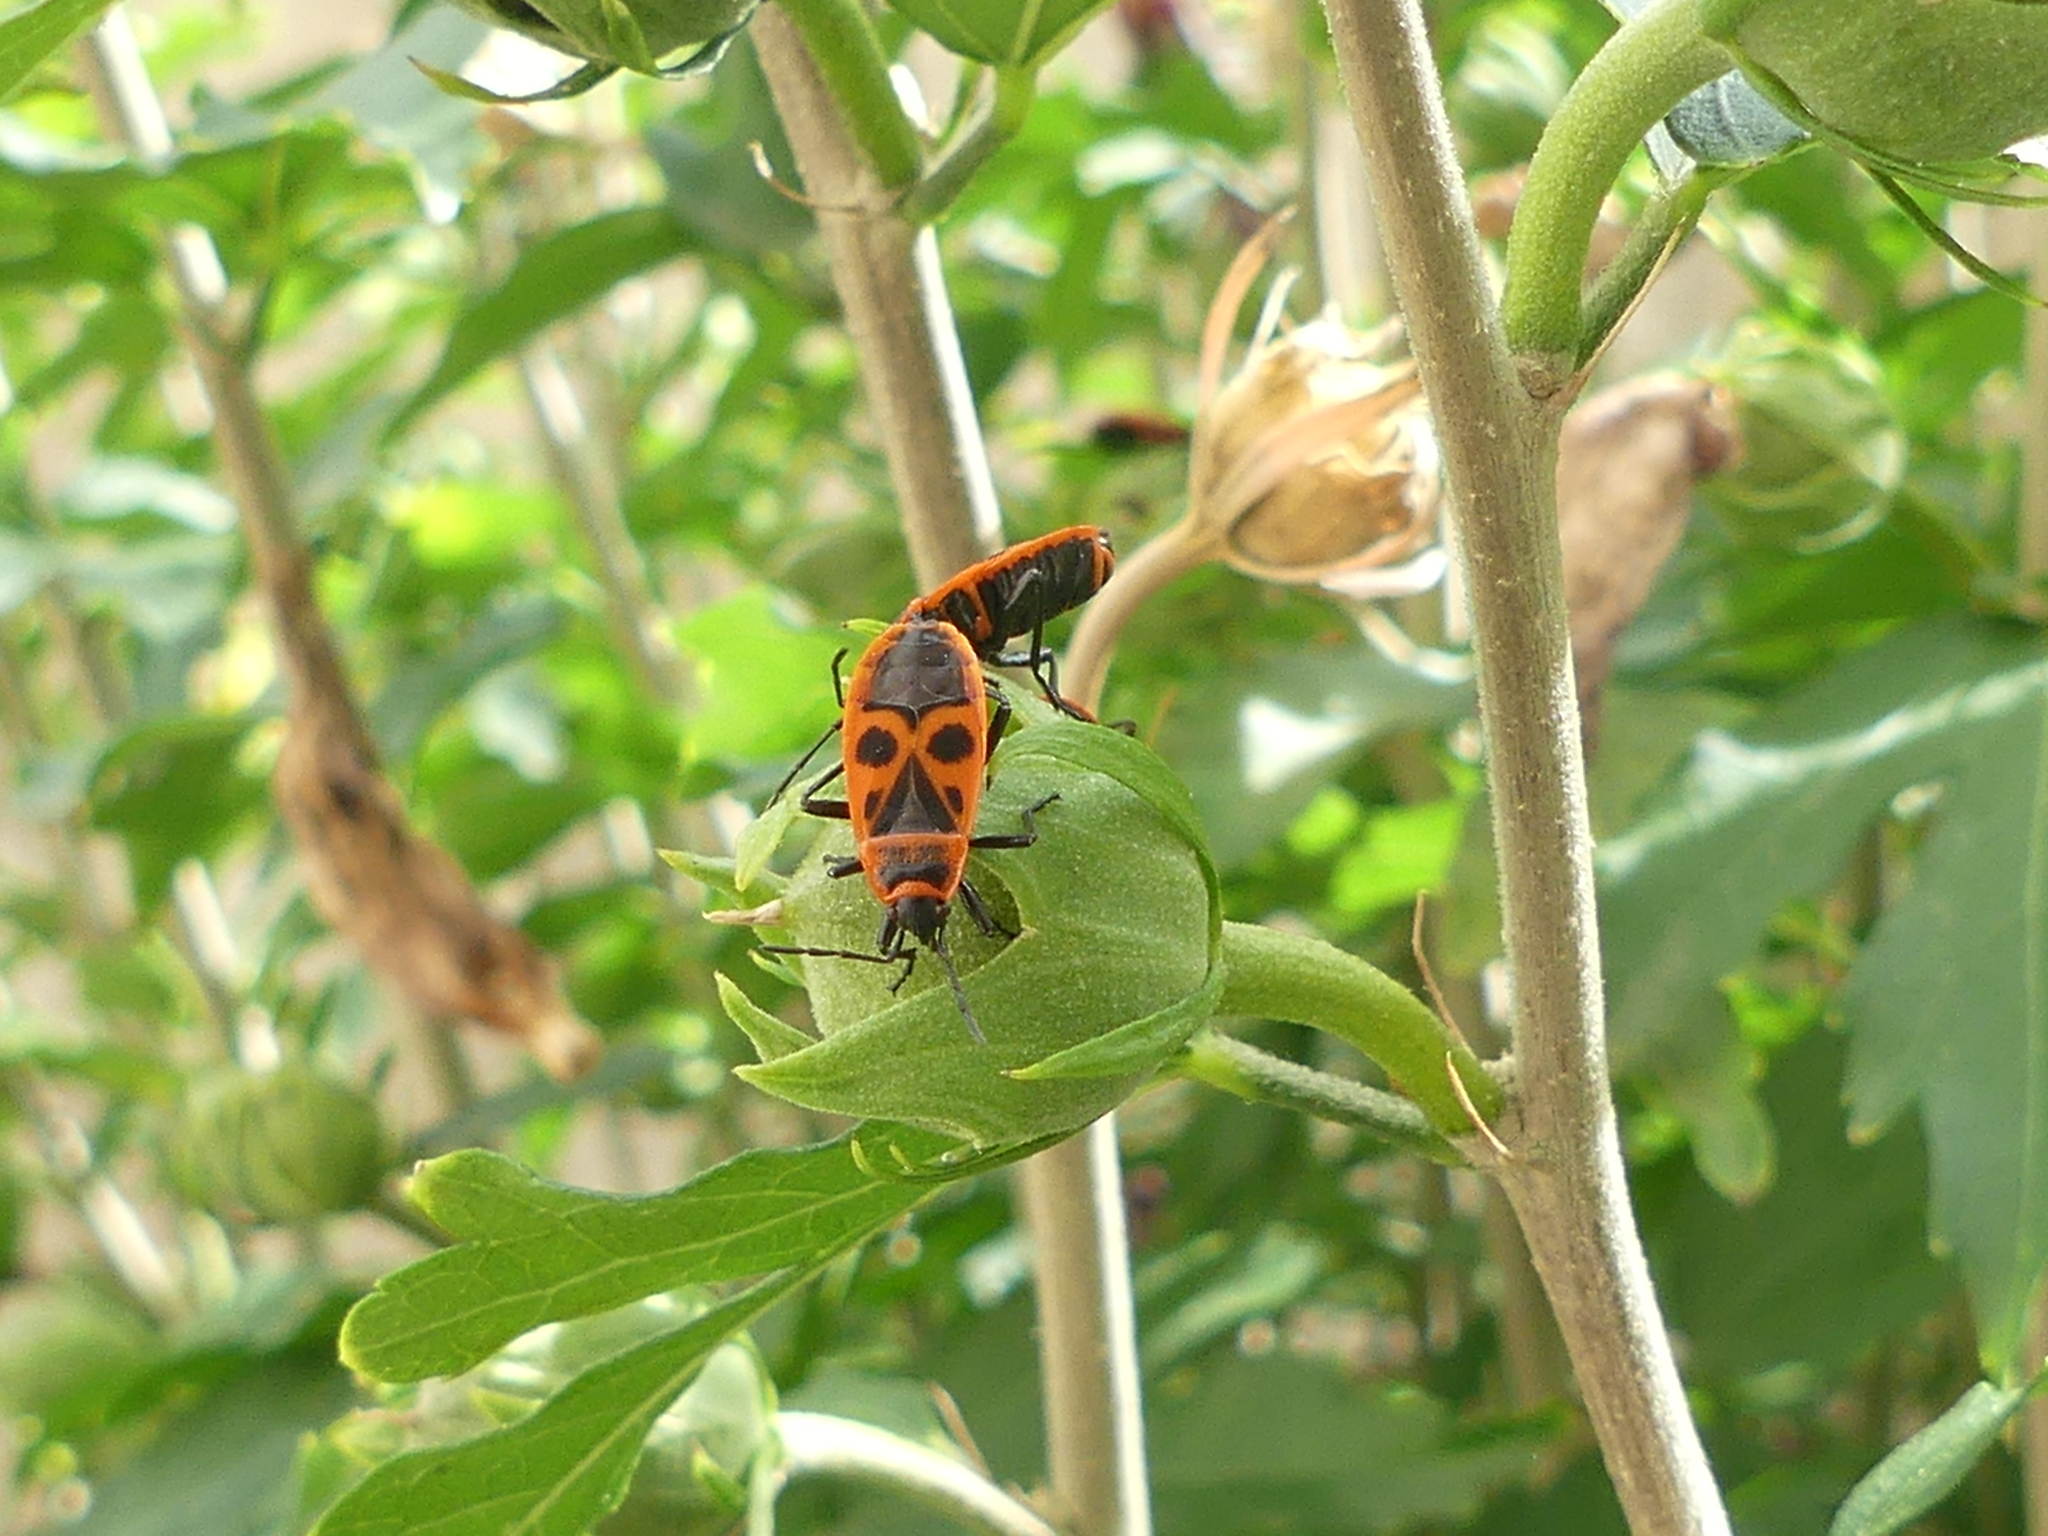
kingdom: Animalia
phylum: Arthropoda
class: Insecta
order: Hemiptera
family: Pyrrhocoridae
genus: Pyrrhocoris
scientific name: Pyrrhocoris apterus
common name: Firebug
